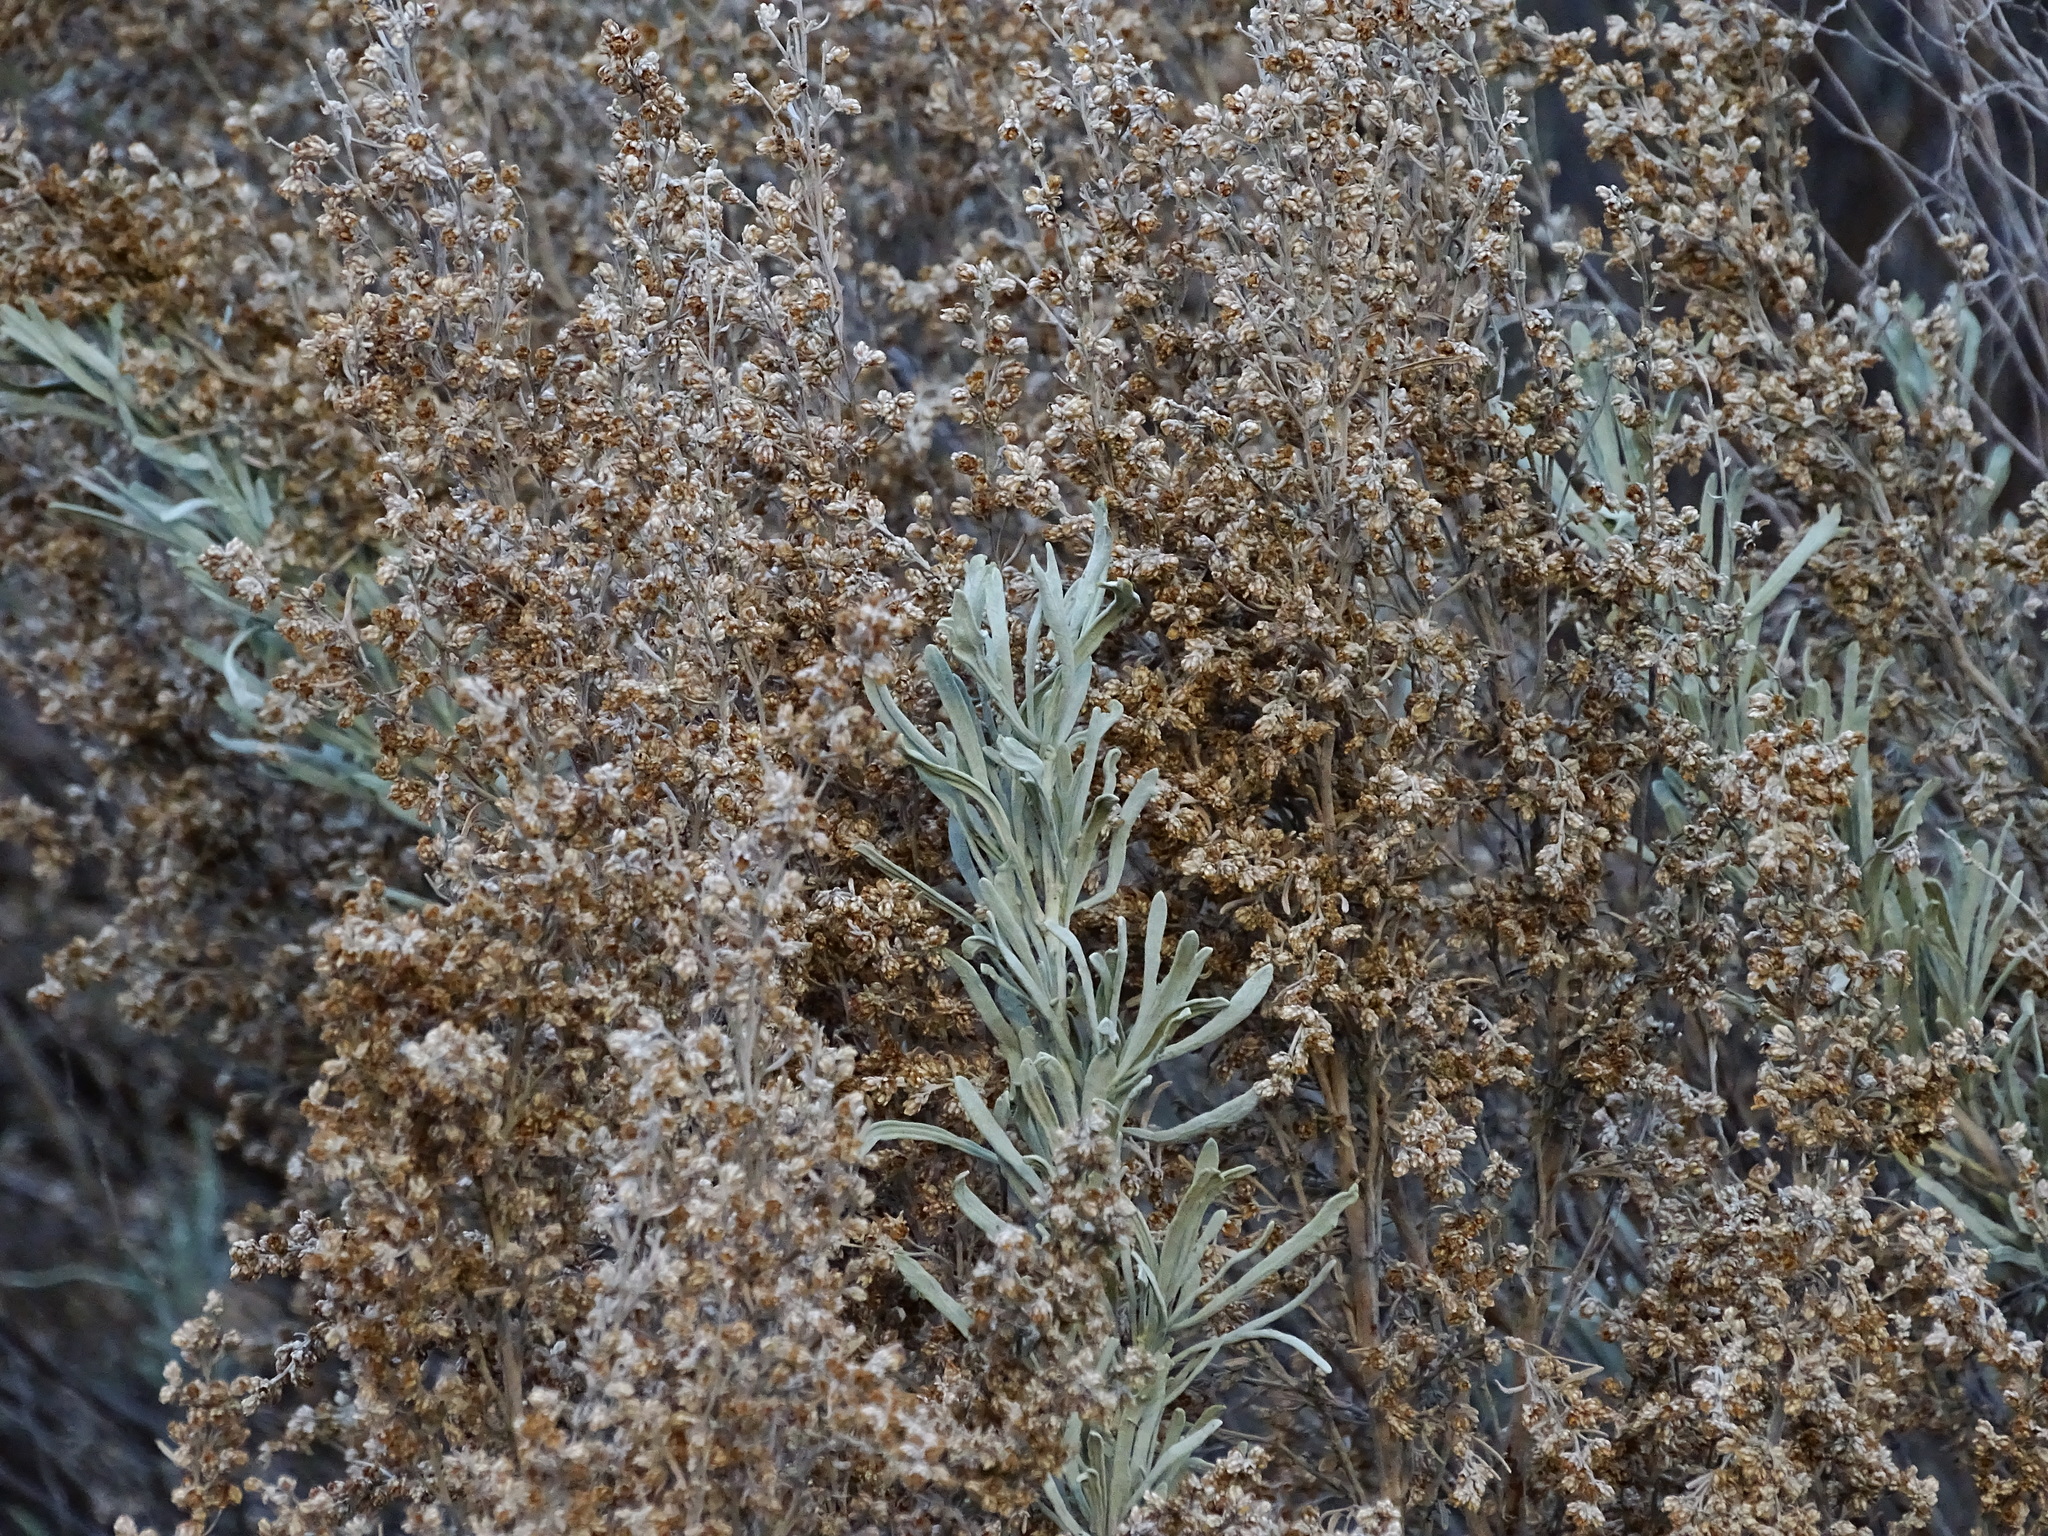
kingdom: Plantae
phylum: Tracheophyta
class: Magnoliopsida
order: Asterales
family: Asteraceae
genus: Artemisia
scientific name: Artemisia tridentata
